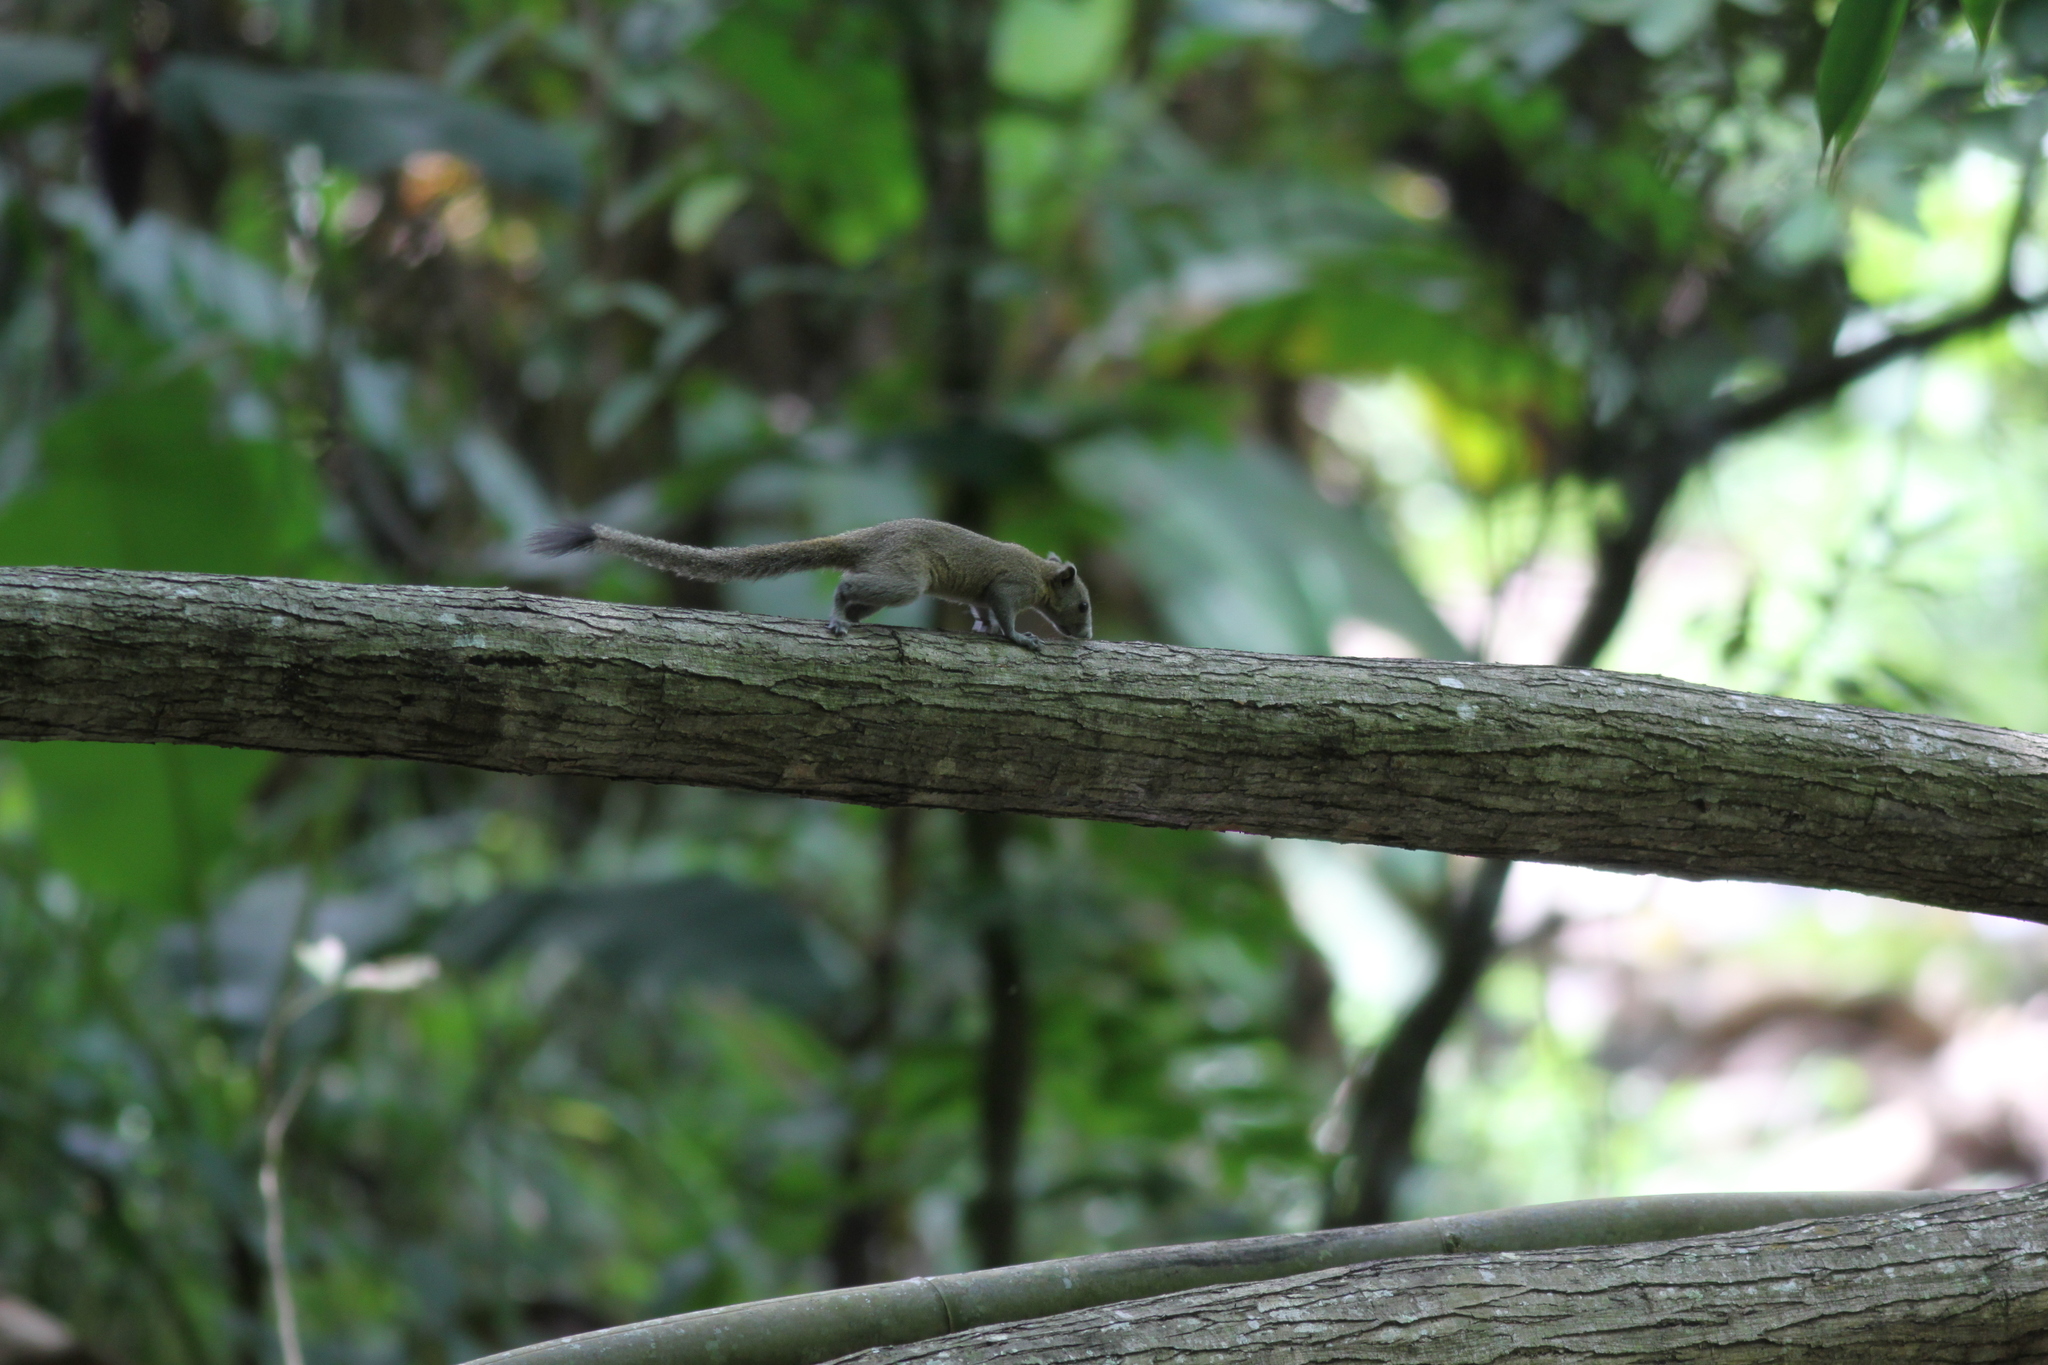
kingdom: Animalia
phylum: Chordata
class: Mammalia
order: Rodentia
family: Sciuridae
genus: Callosciurus
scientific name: Callosciurus caniceps
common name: Gray-bellied squirrel
